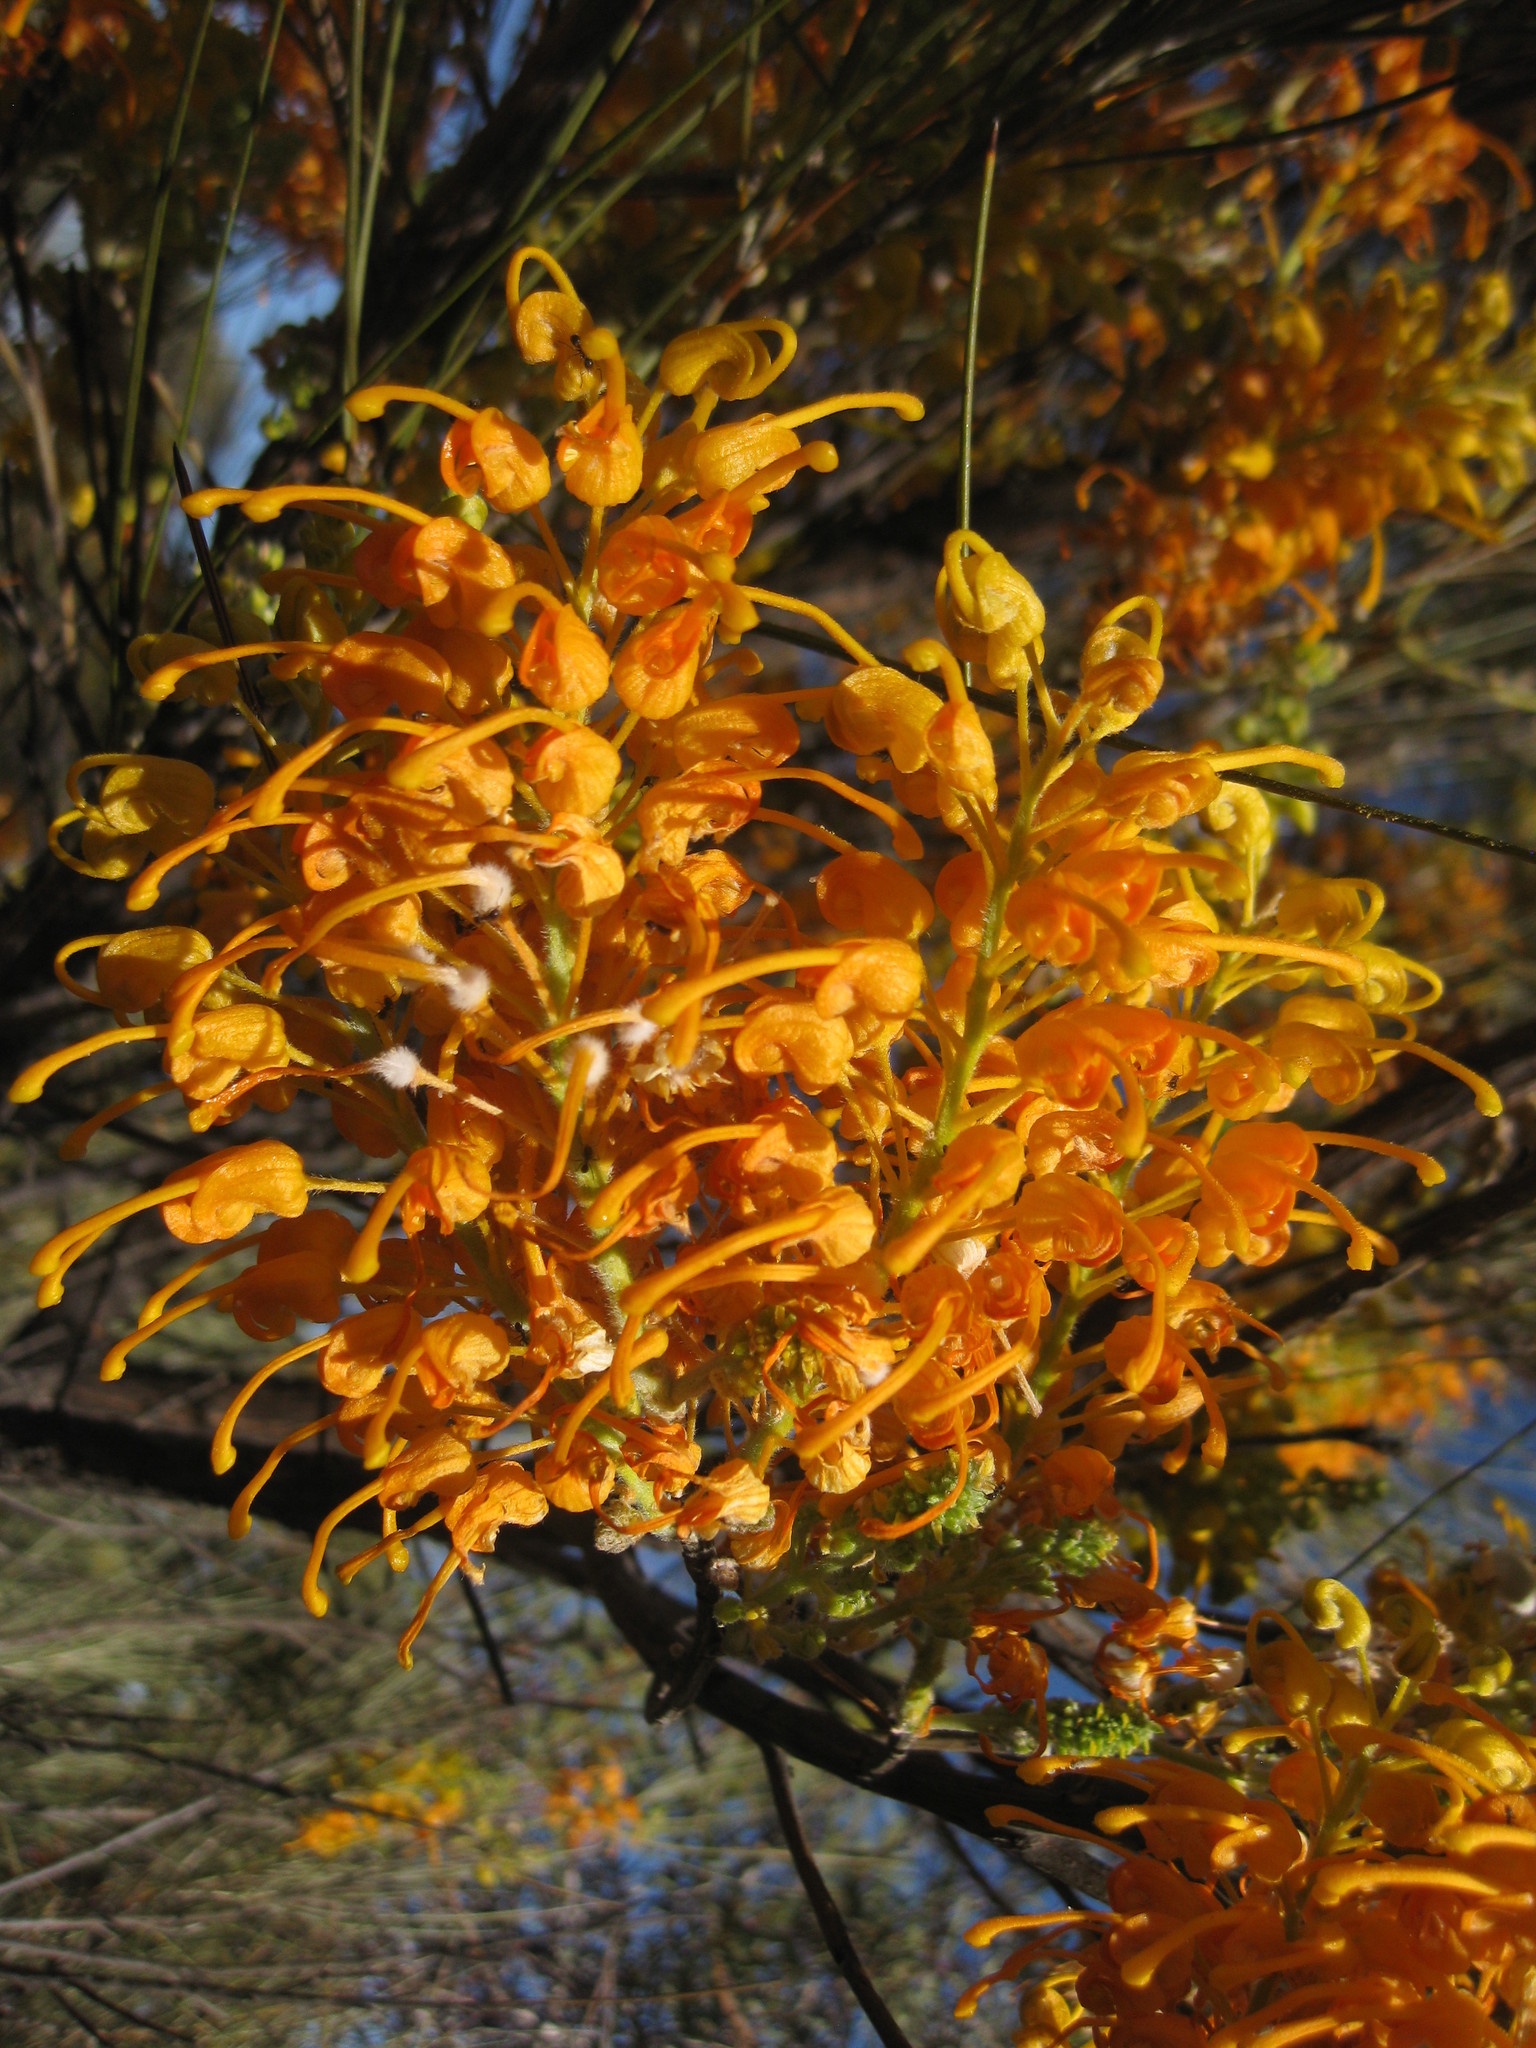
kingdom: Plantae
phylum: Tracheophyta
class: Magnoliopsida
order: Proteales
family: Proteaceae
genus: Grevillea
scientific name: Grevillea juncifolia
